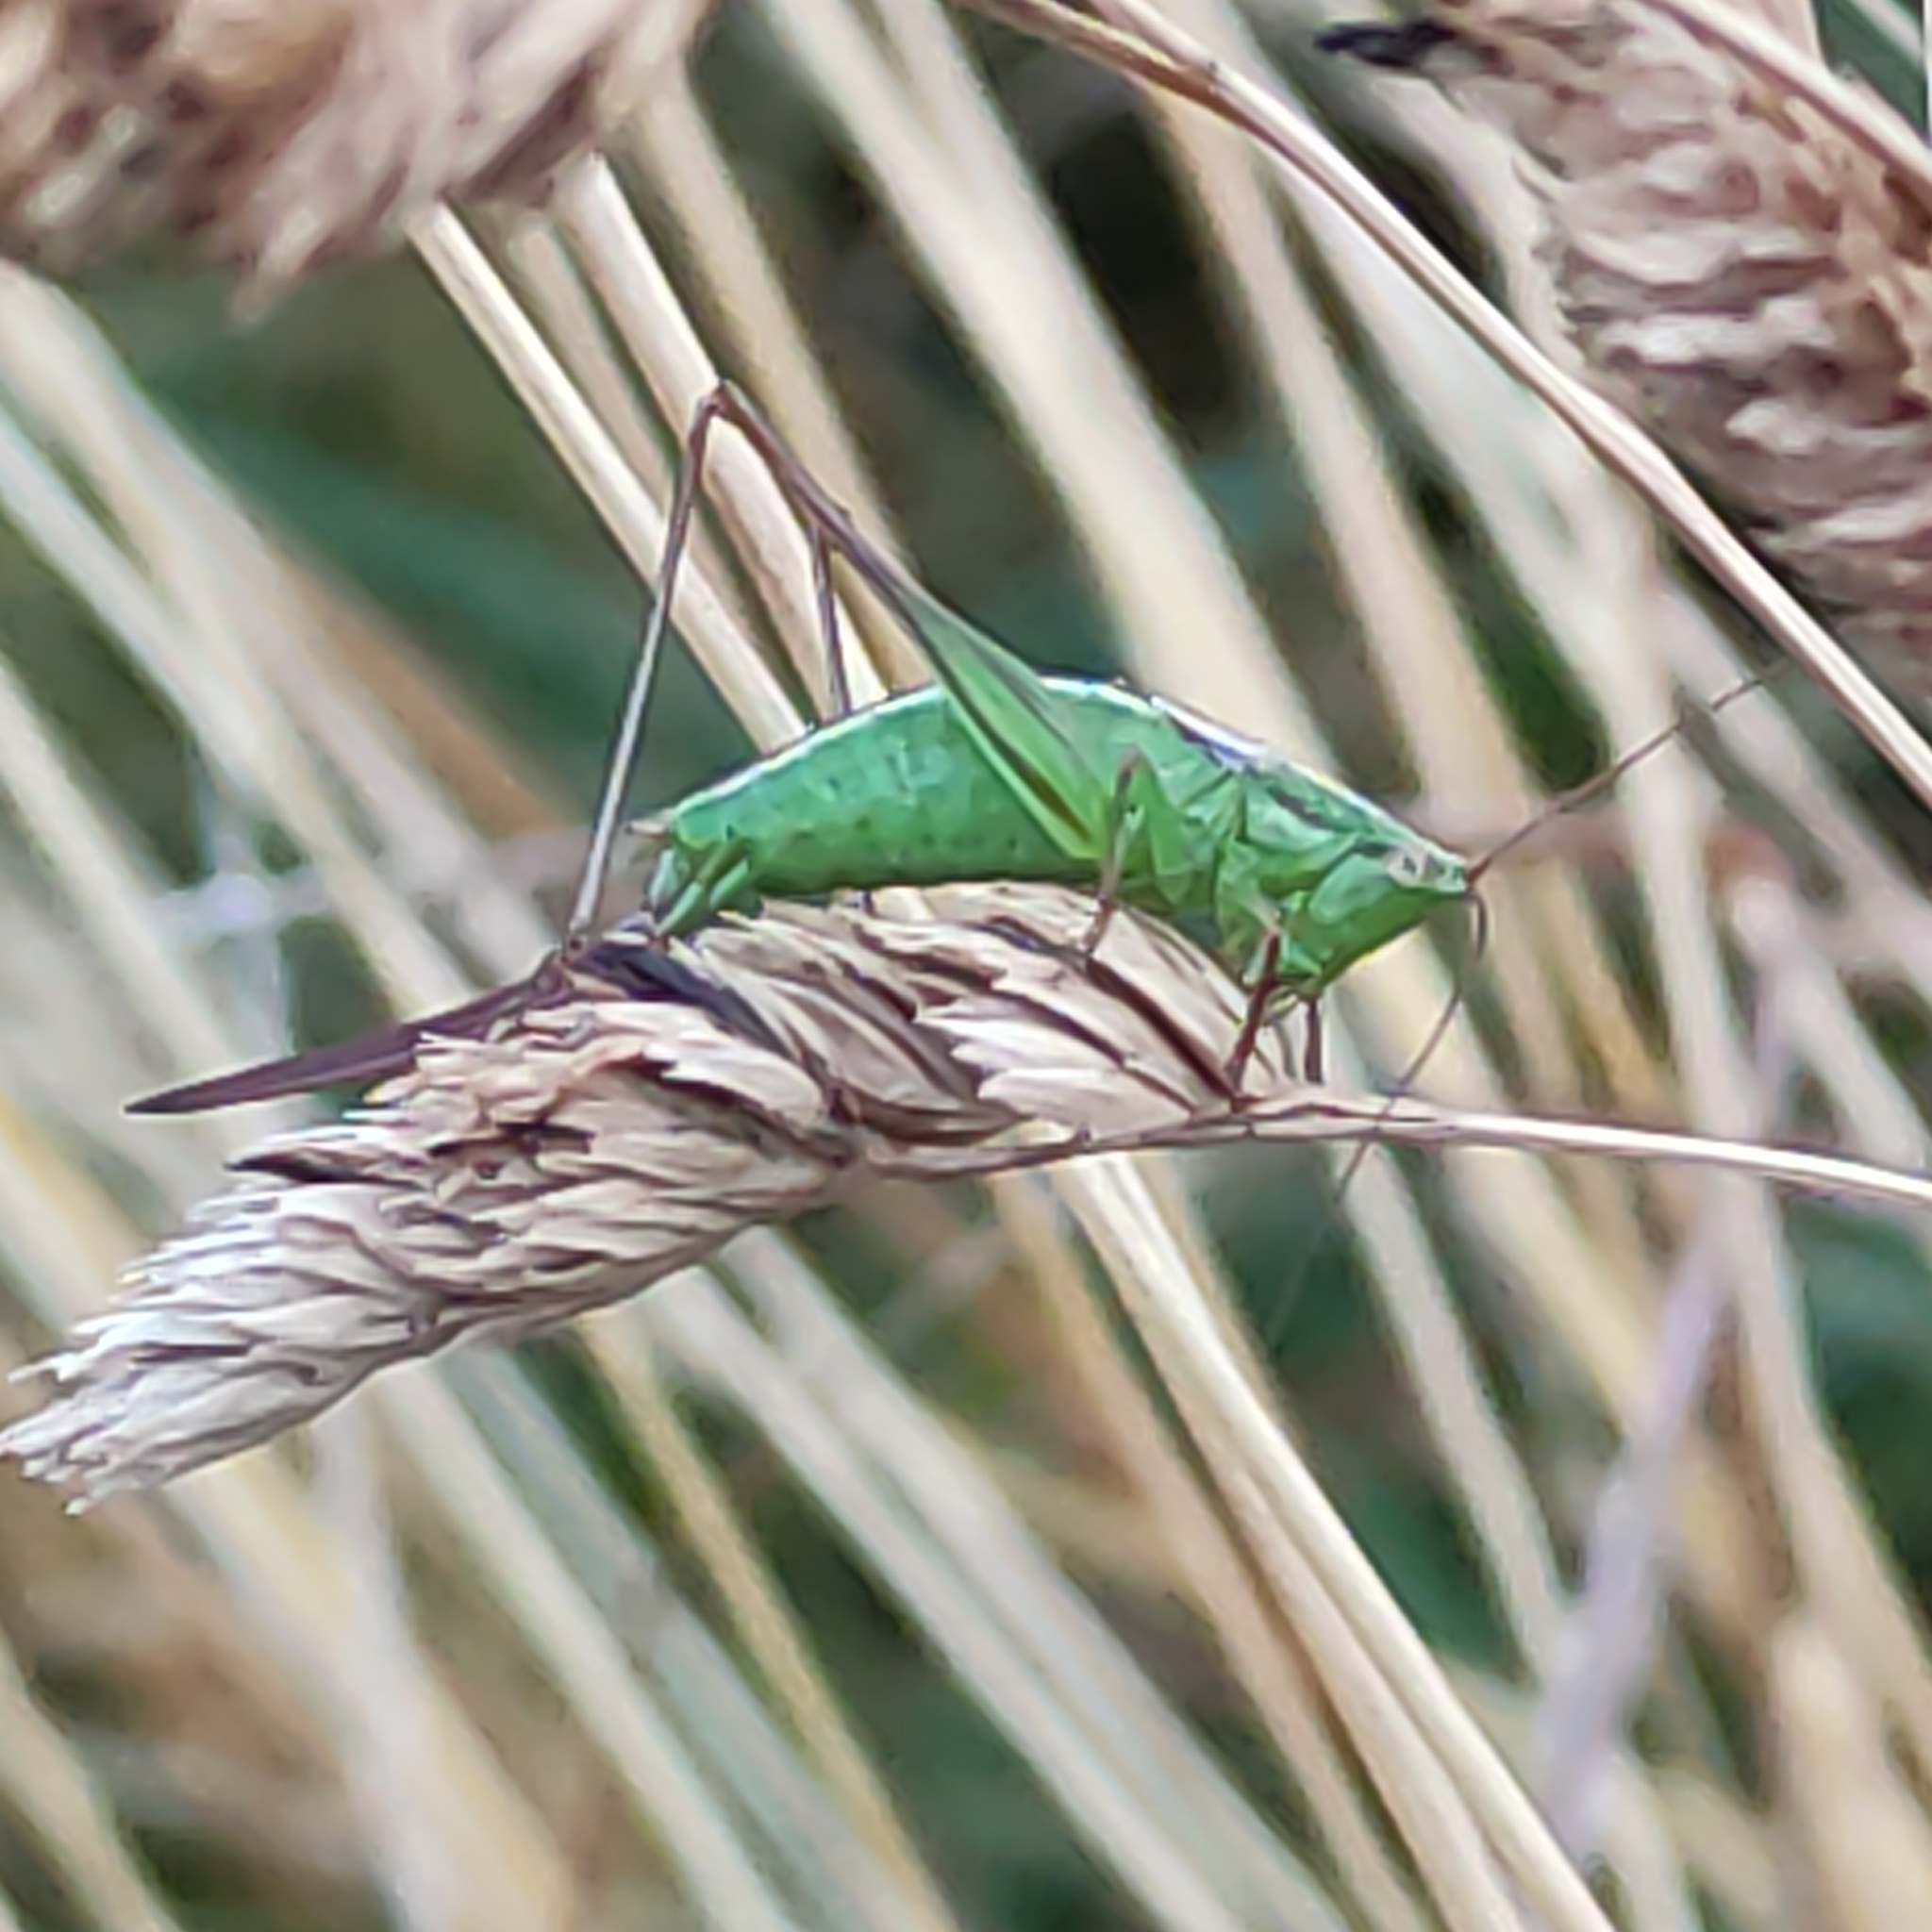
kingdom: Animalia
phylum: Arthropoda
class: Insecta
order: Orthoptera
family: Tettigoniidae
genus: Conocephalus
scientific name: Conocephalus bilineatus
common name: Small meadow katydid
